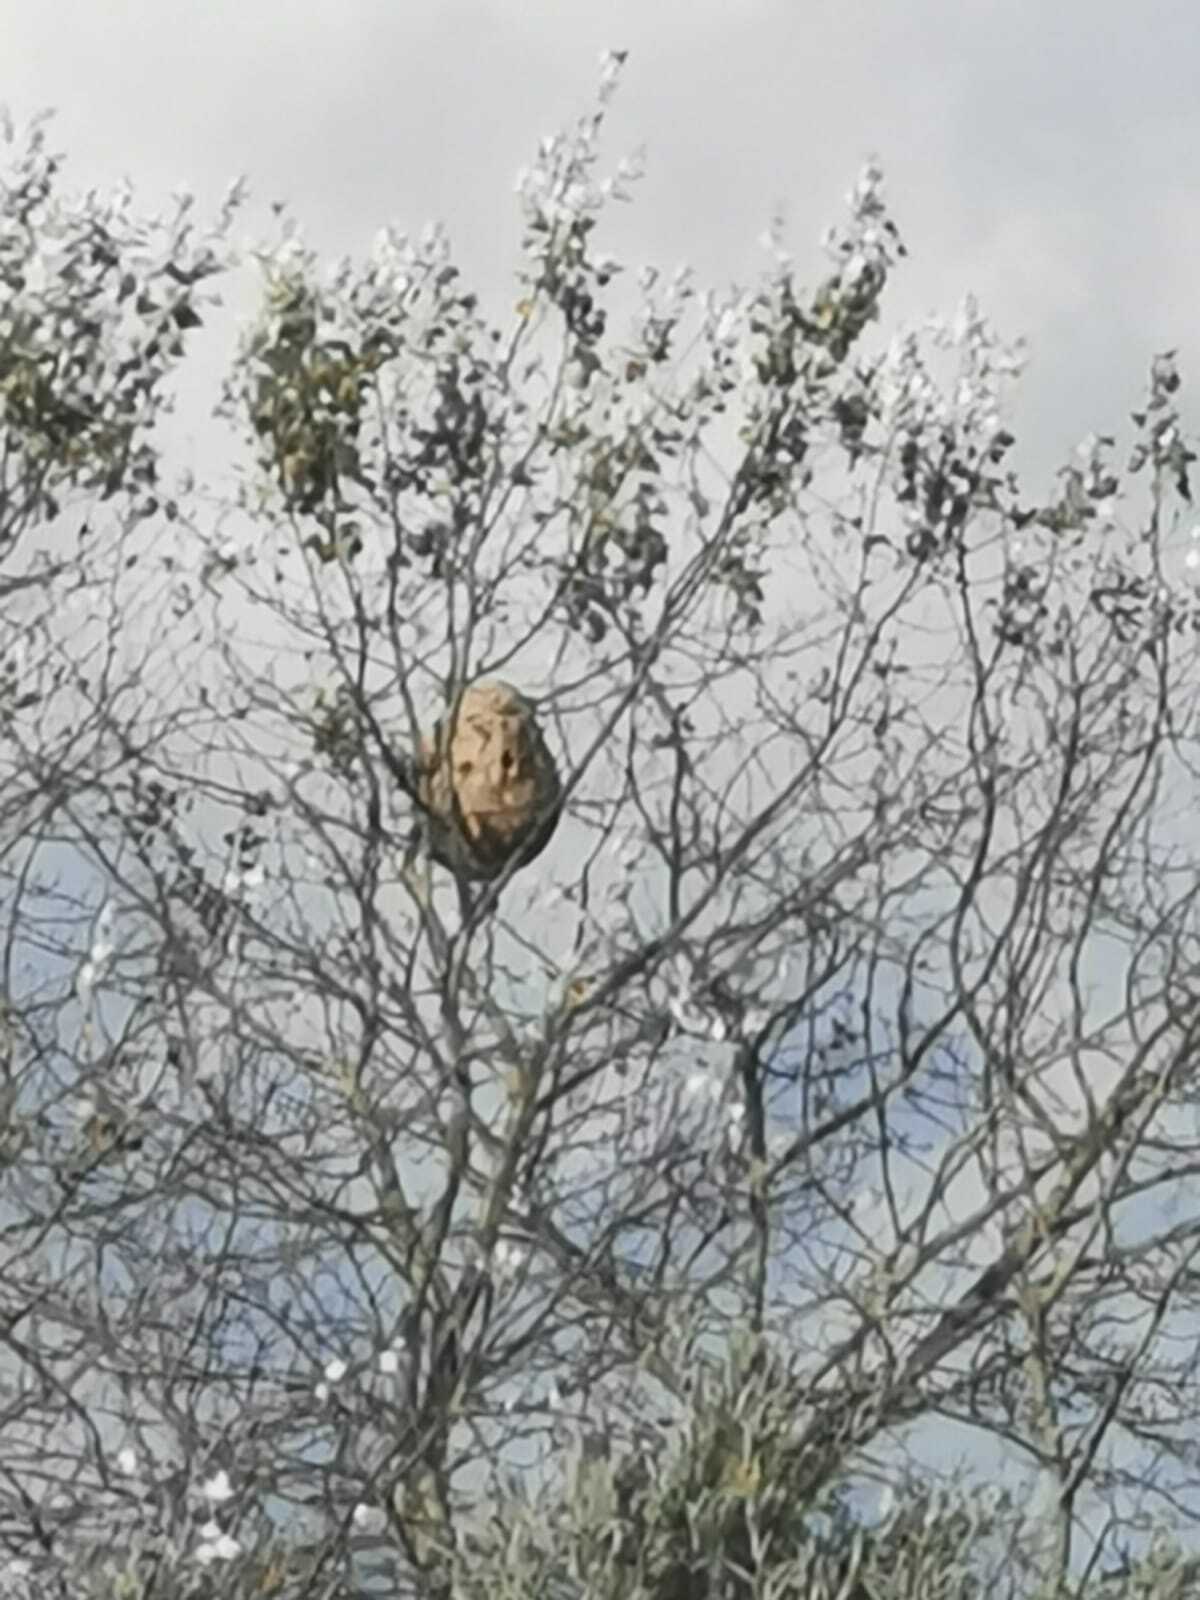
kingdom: Animalia
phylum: Arthropoda
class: Insecta
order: Hymenoptera
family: Vespidae
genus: Vespa
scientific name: Vespa velutina
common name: Asian hornet
